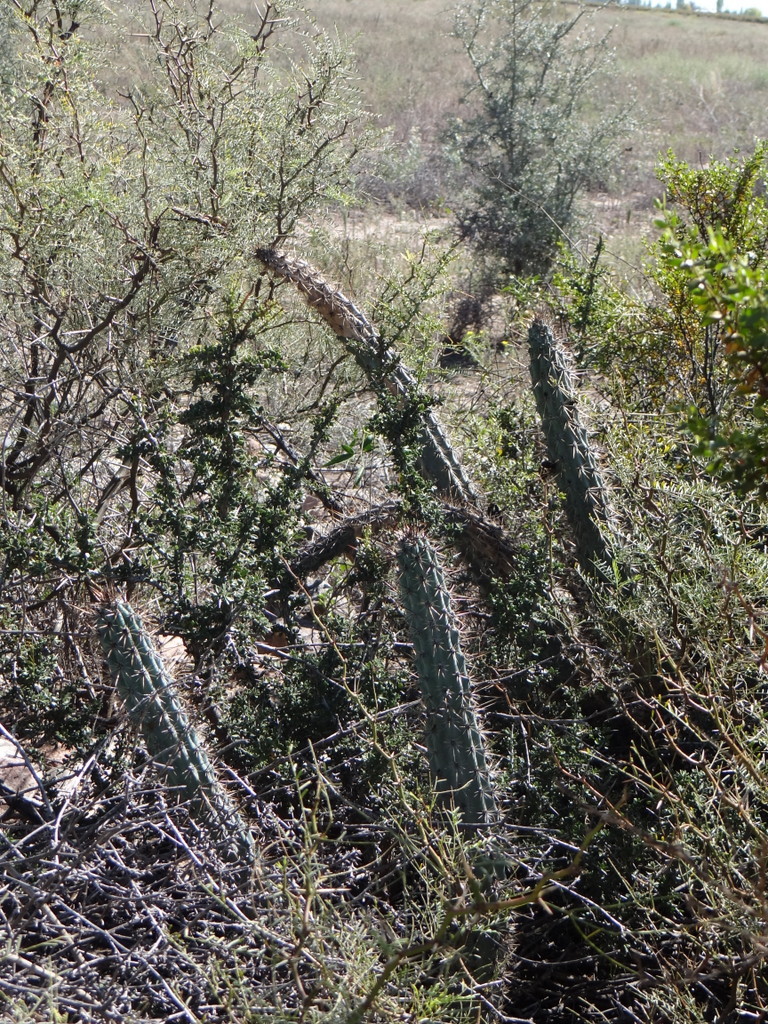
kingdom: Plantae
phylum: Tracheophyta
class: Magnoliopsida
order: Caryophyllales
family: Cactaceae
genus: Cereus
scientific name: Cereus aethiops
